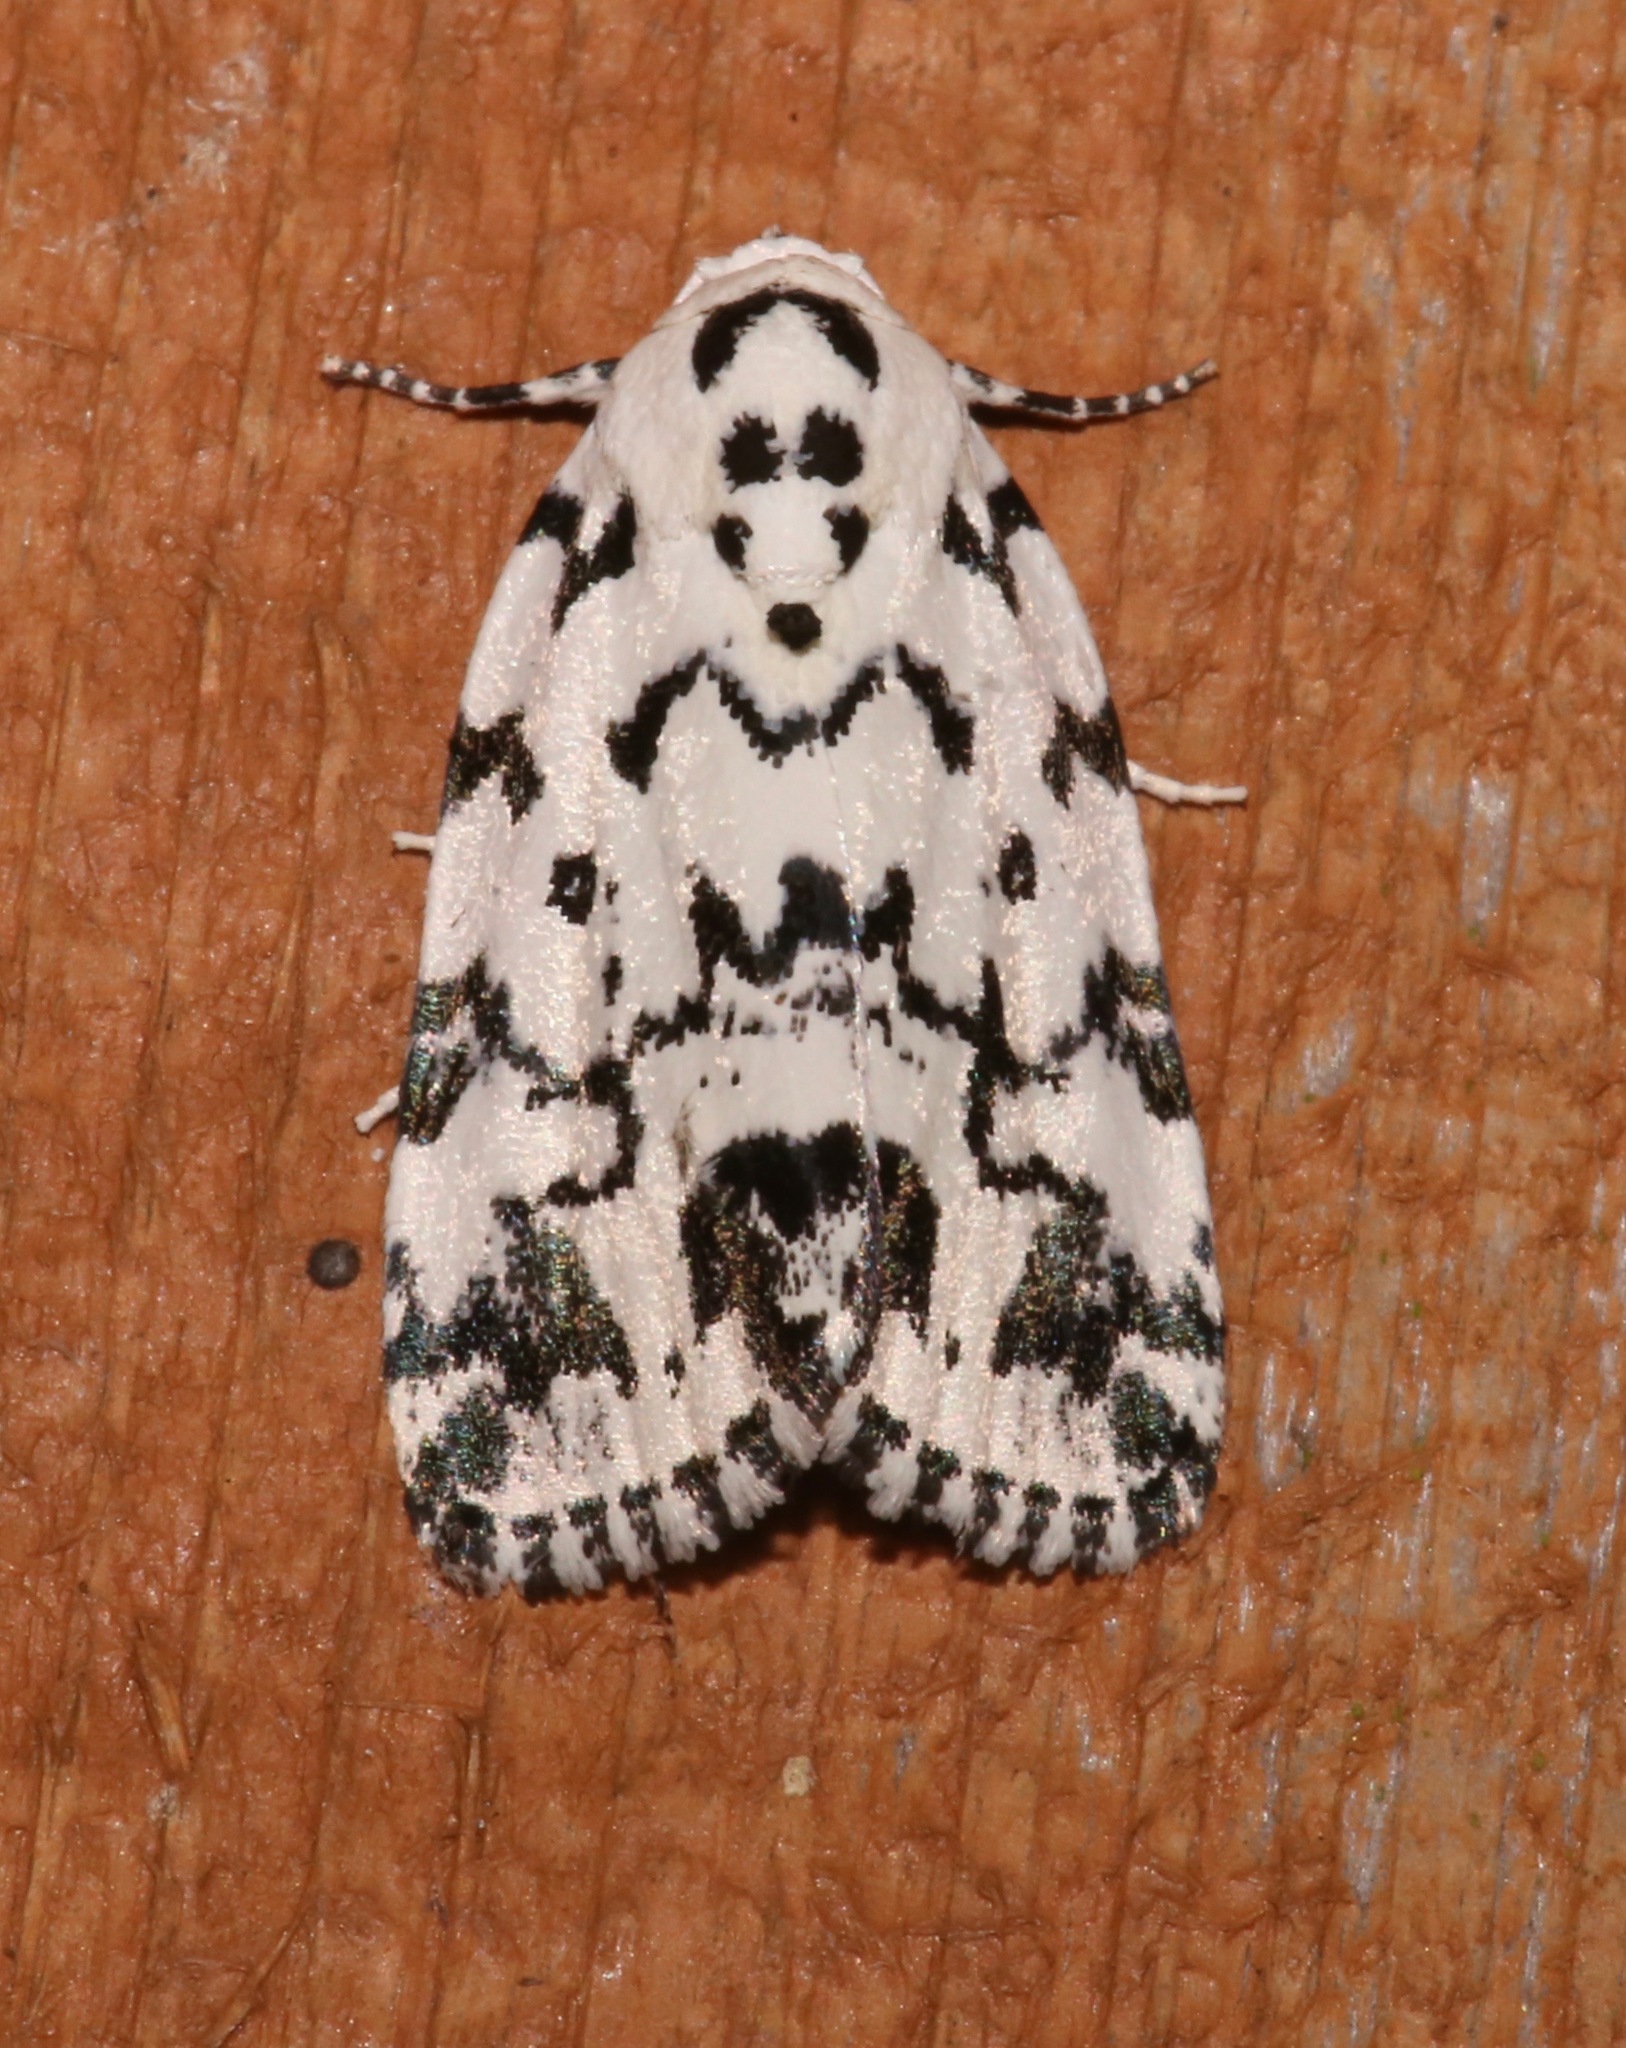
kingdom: Animalia
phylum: Arthropoda
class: Insecta
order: Lepidoptera
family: Noctuidae
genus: Polygrammate
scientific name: Polygrammate hebraeicum
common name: Hebrew moth
